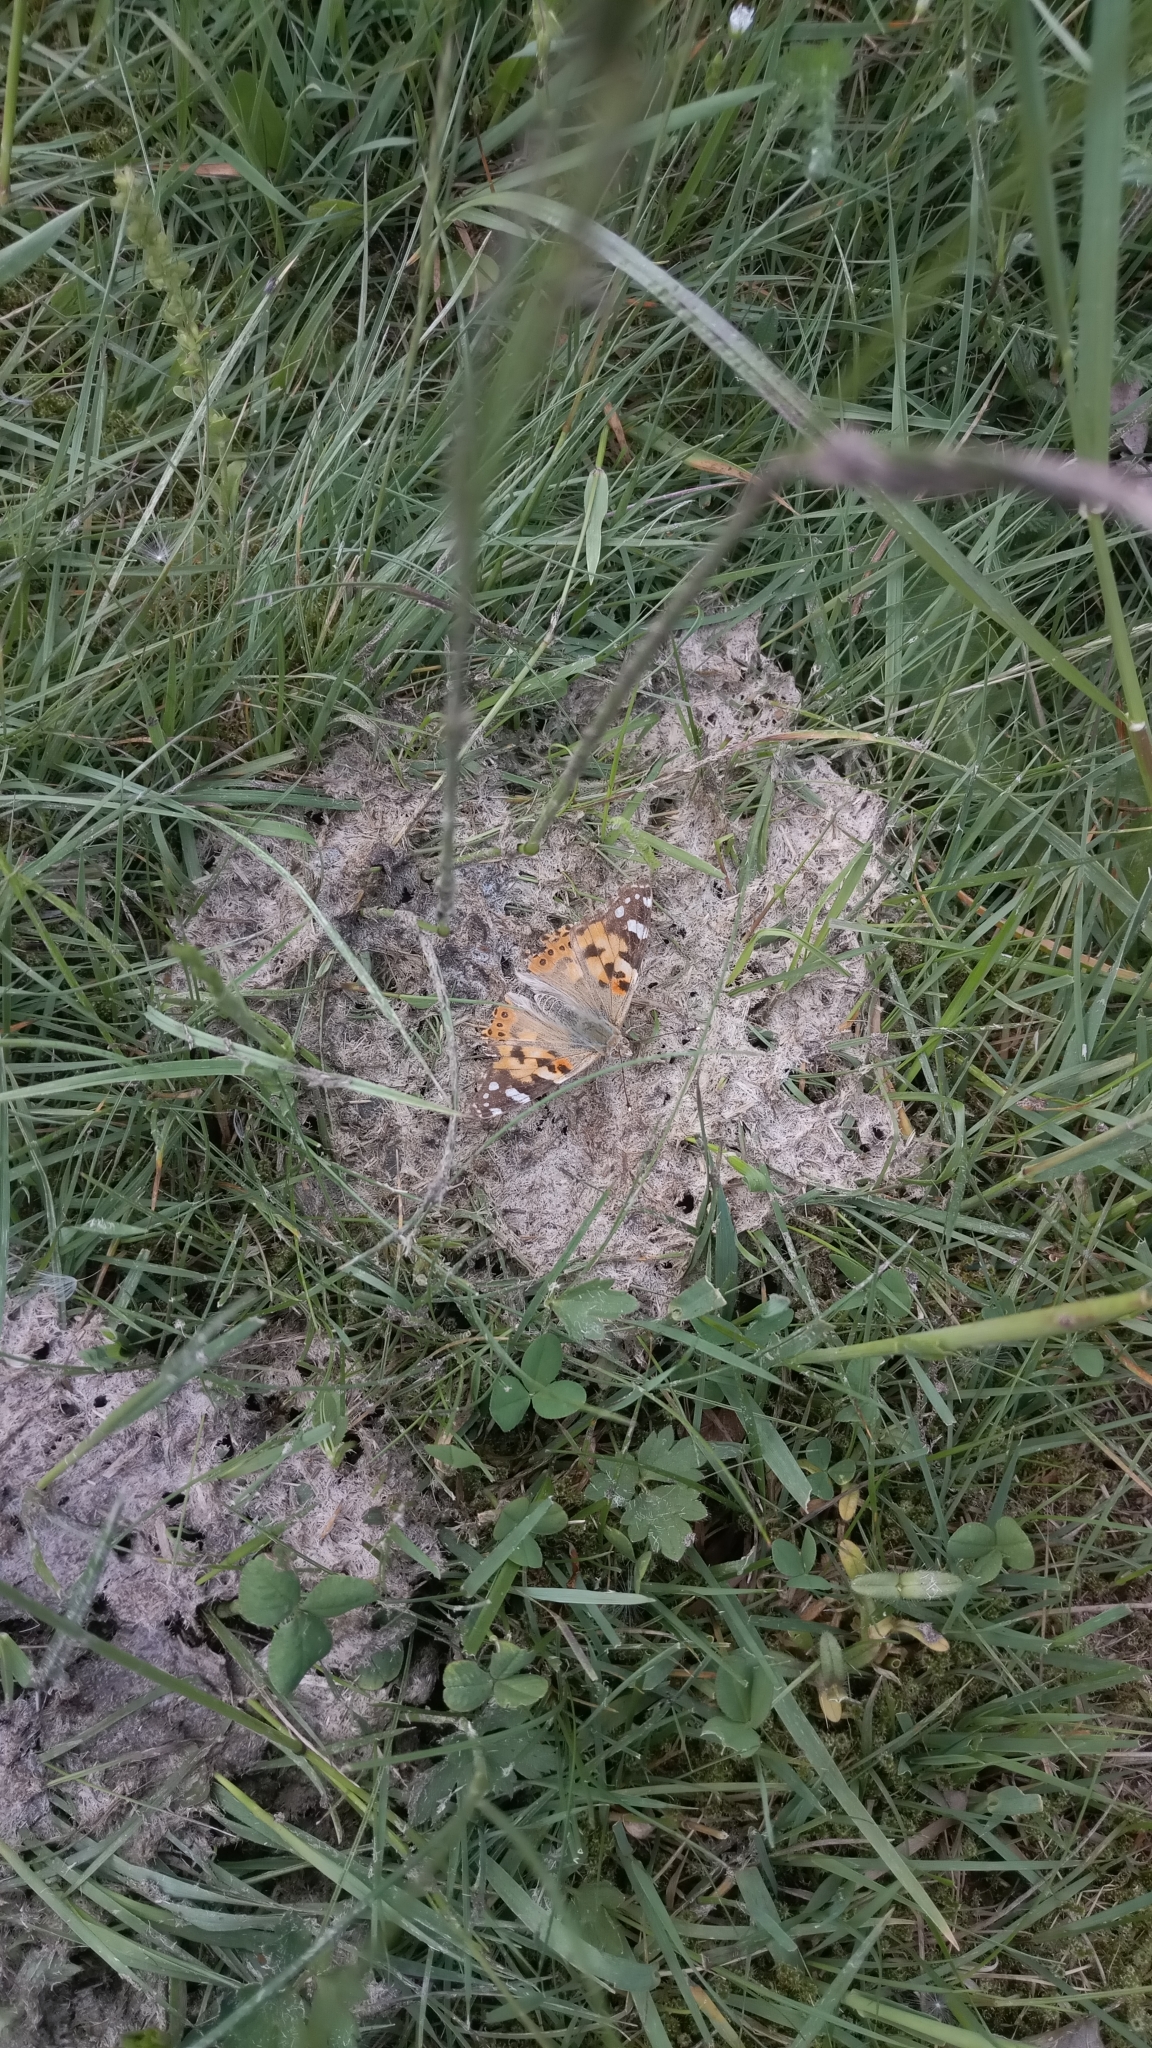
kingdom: Animalia
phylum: Arthropoda
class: Insecta
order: Lepidoptera
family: Nymphalidae
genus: Vanessa
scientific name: Vanessa cardui
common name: Painted lady
